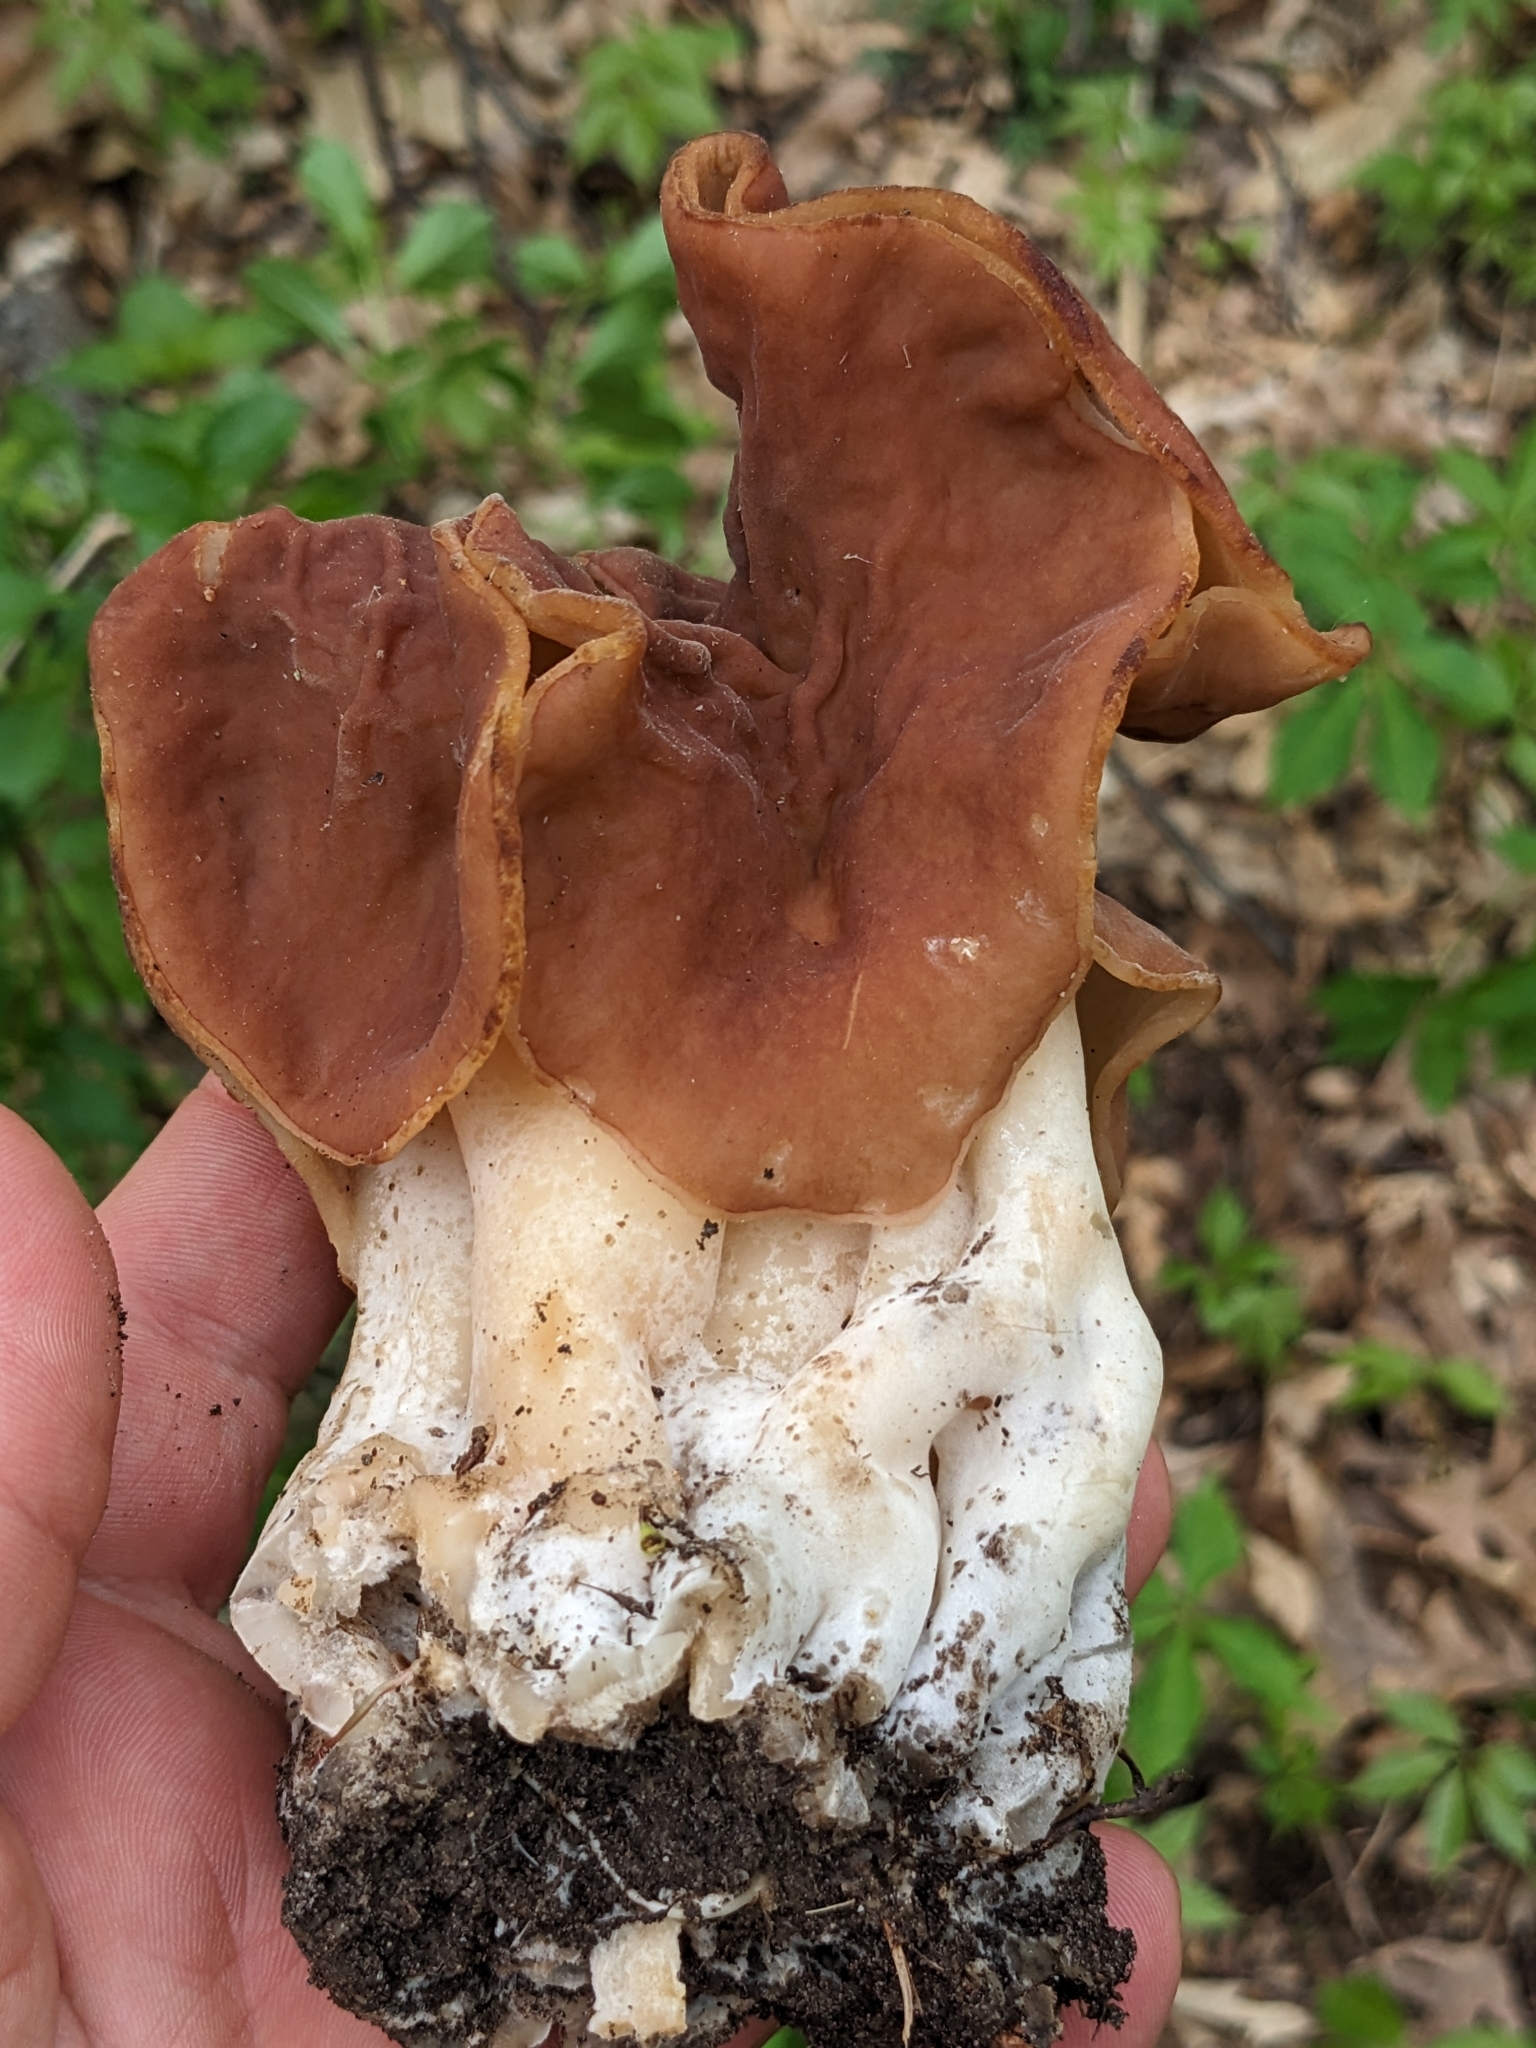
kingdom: Fungi
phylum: Ascomycota
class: Pezizomycetes
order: Pezizales
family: Discinaceae
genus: Discina
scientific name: Discina brunnea
